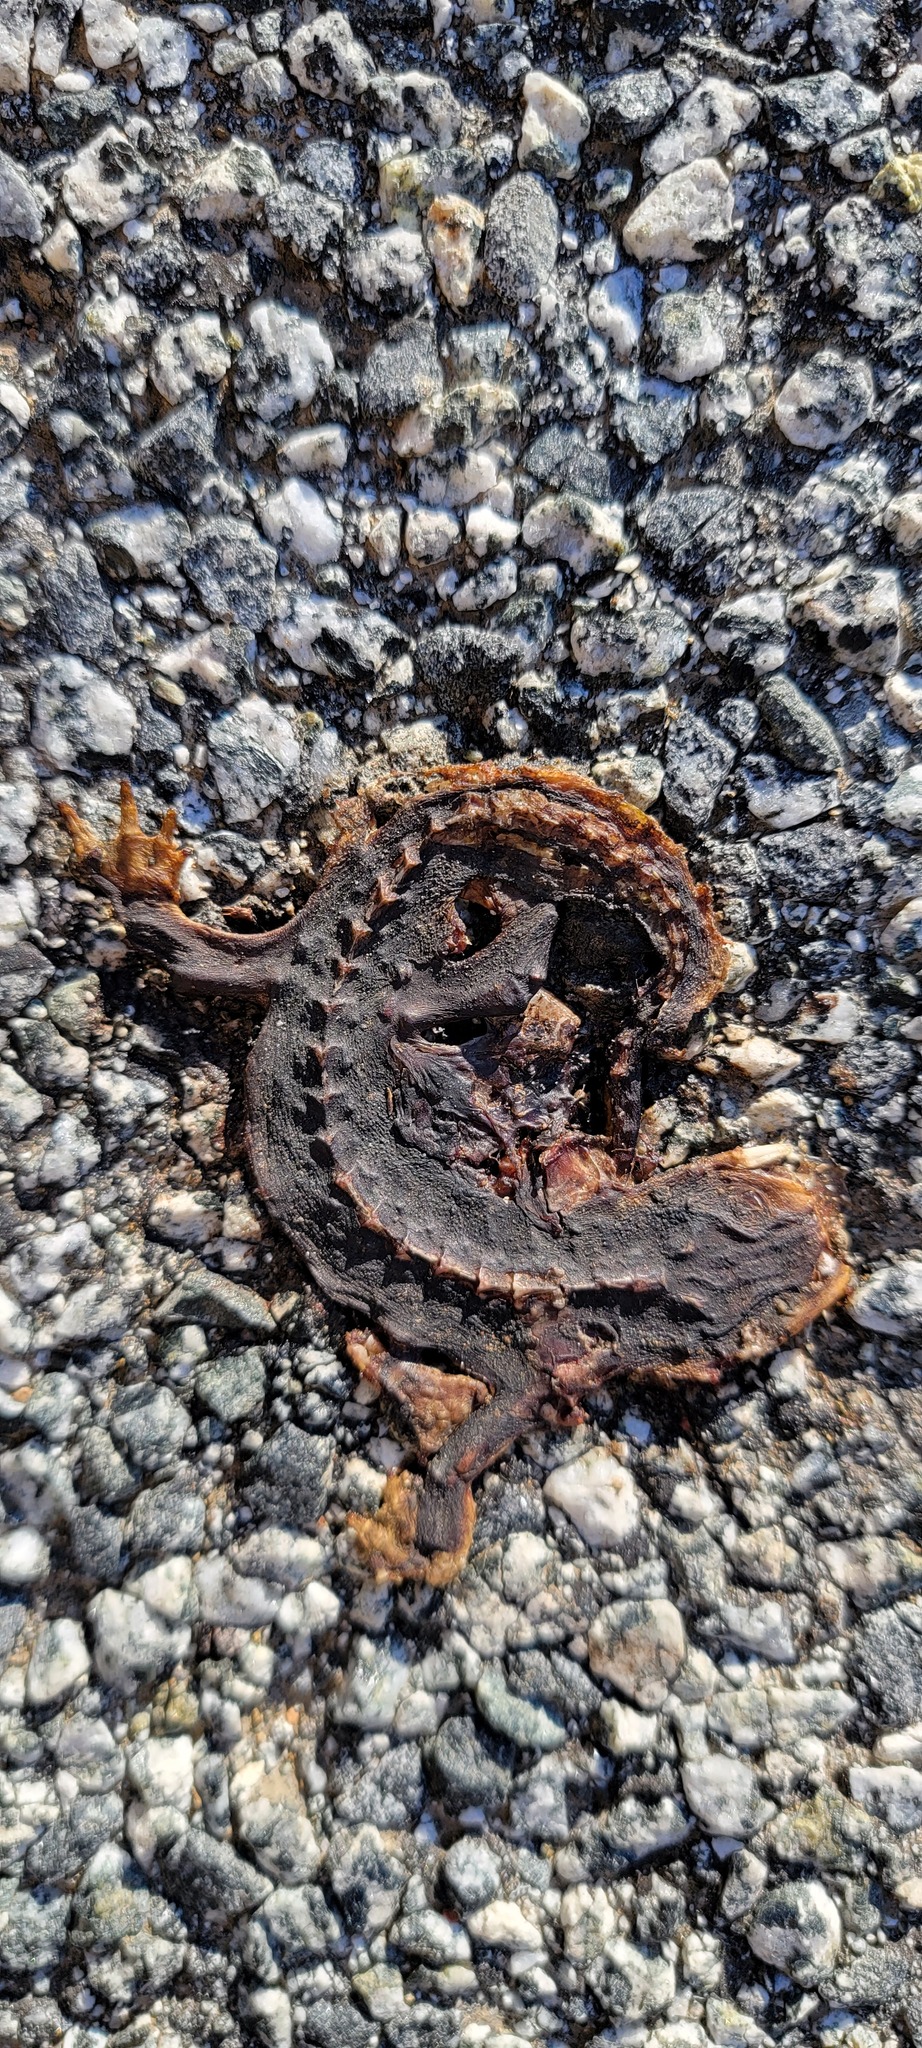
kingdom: Animalia
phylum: Chordata
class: Amphibia
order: Caudata
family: Salamandridae
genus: Taricha
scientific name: Taricha
